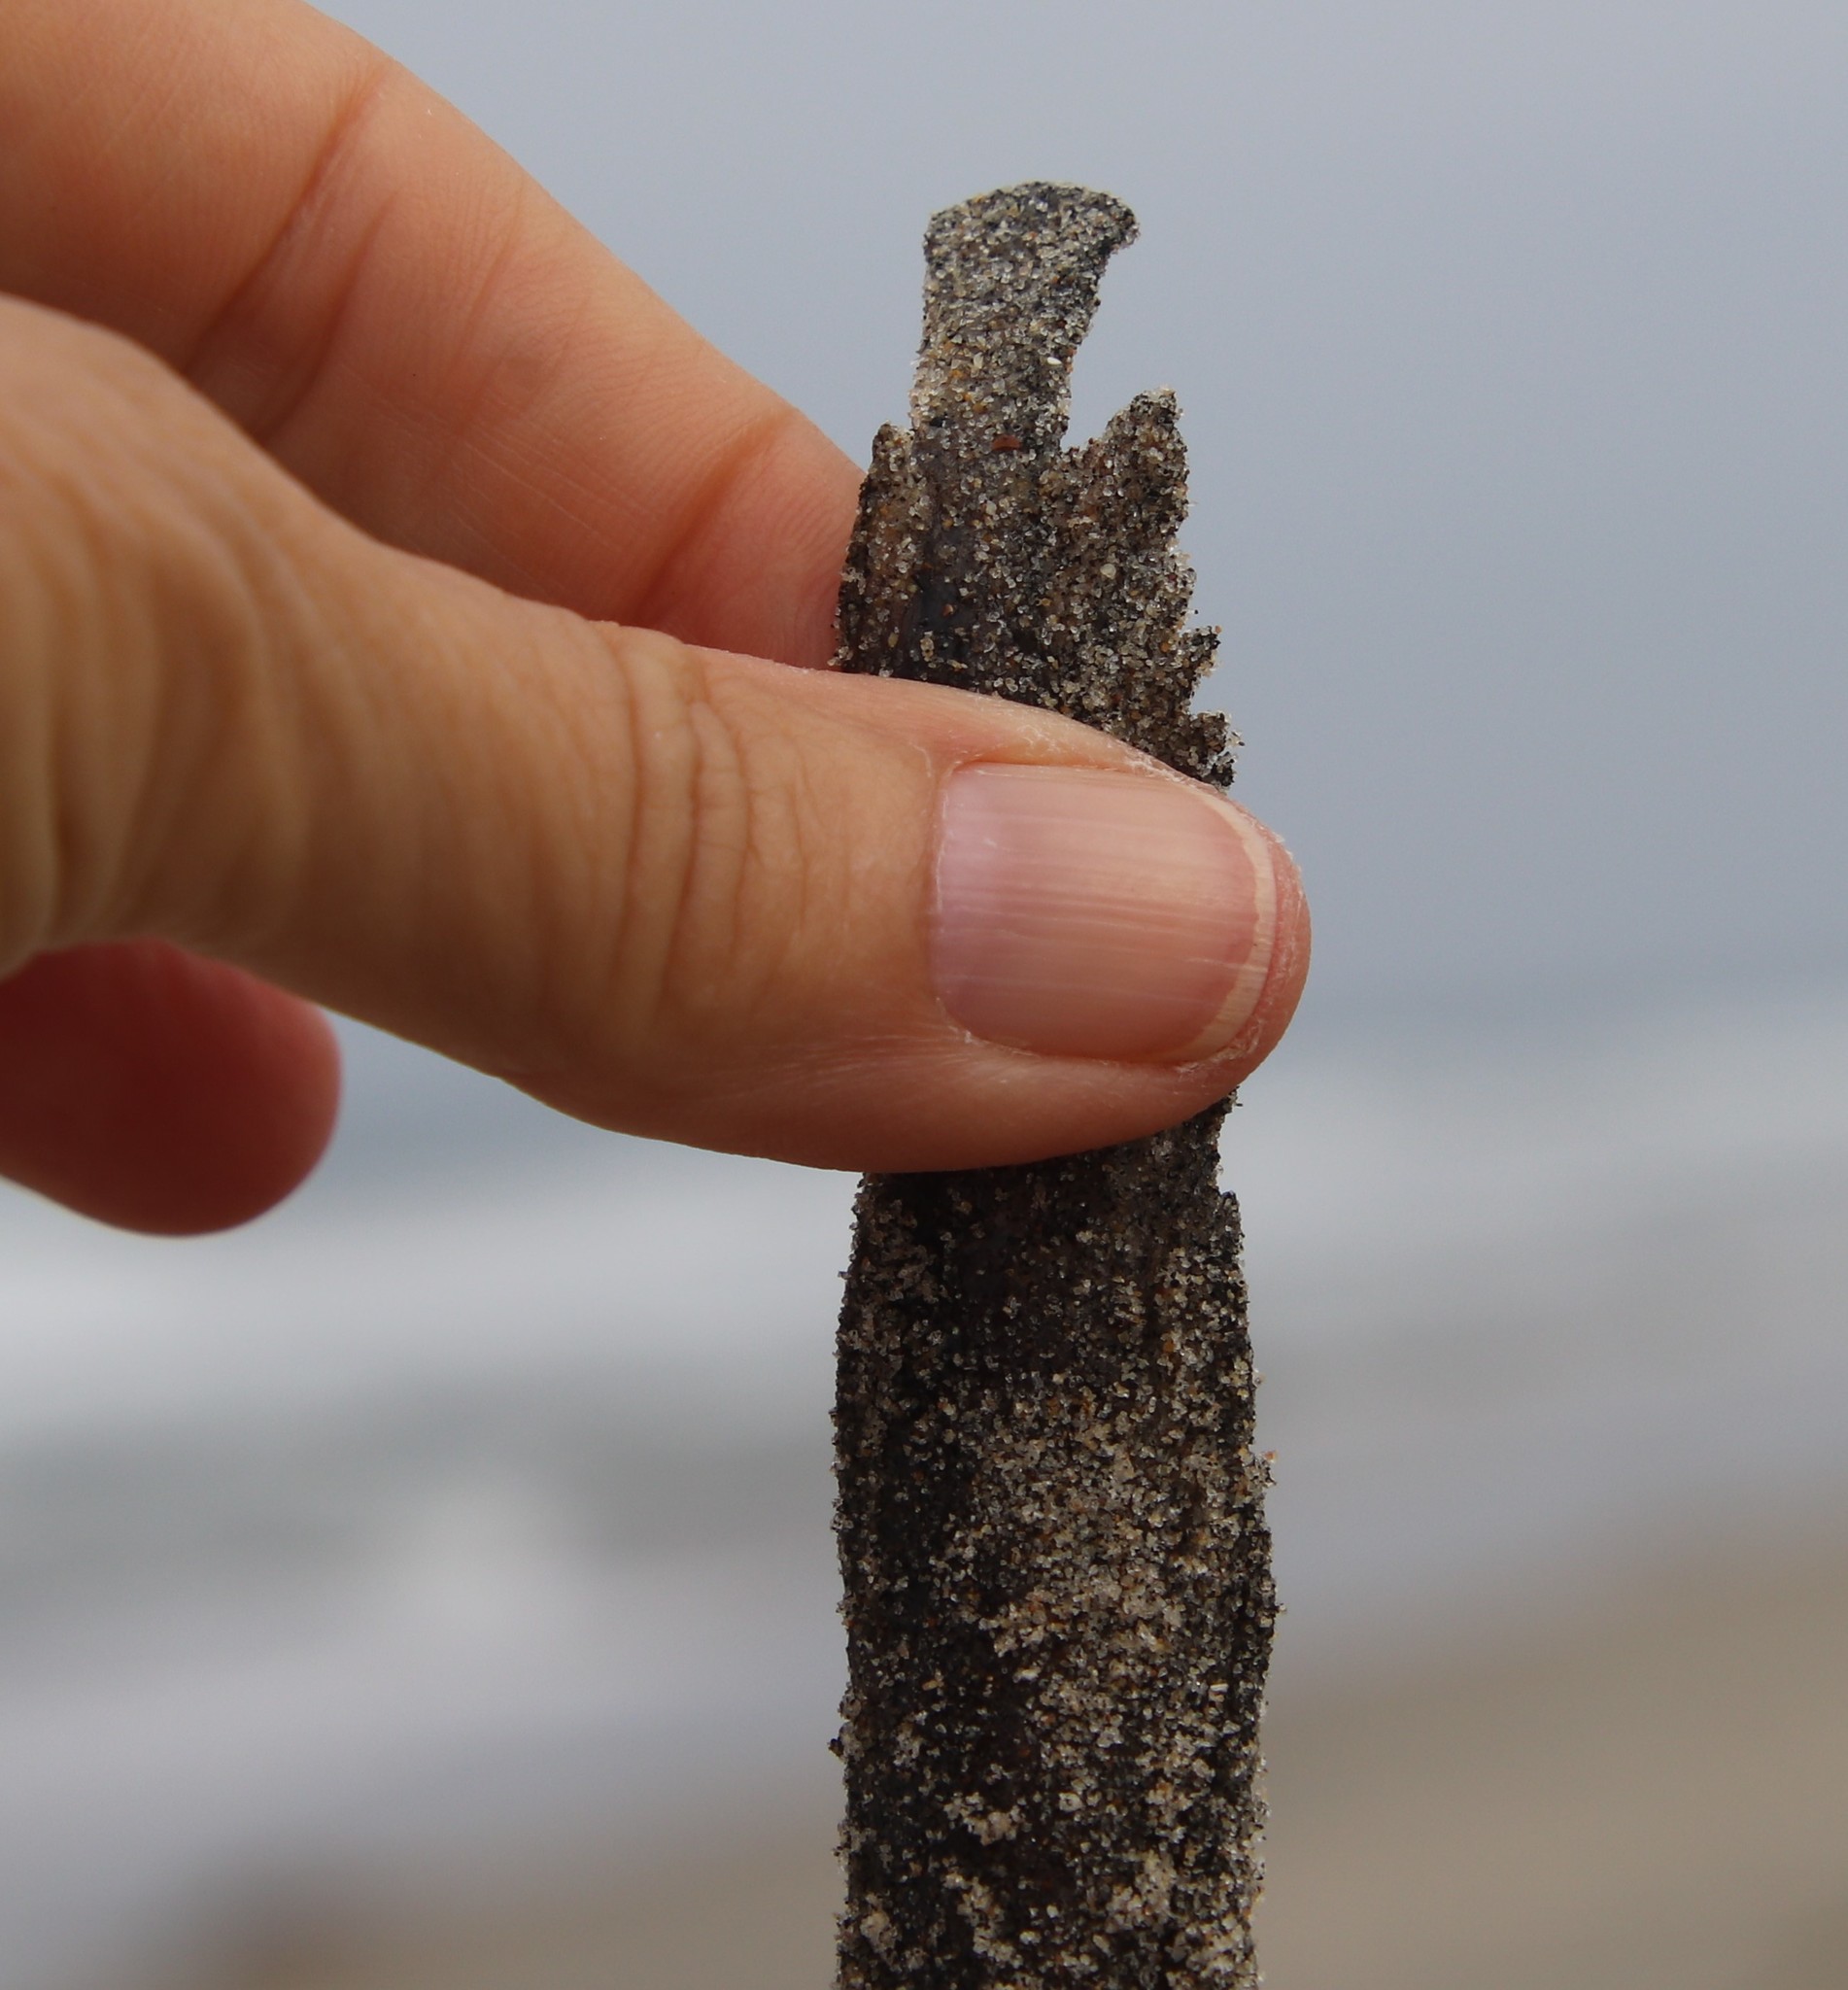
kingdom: Animalia
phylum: Chordata
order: Batrachoidiformes
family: Batrachoididae
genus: Porichthys
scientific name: Porichthys notatus
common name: Plainfin midshipman
